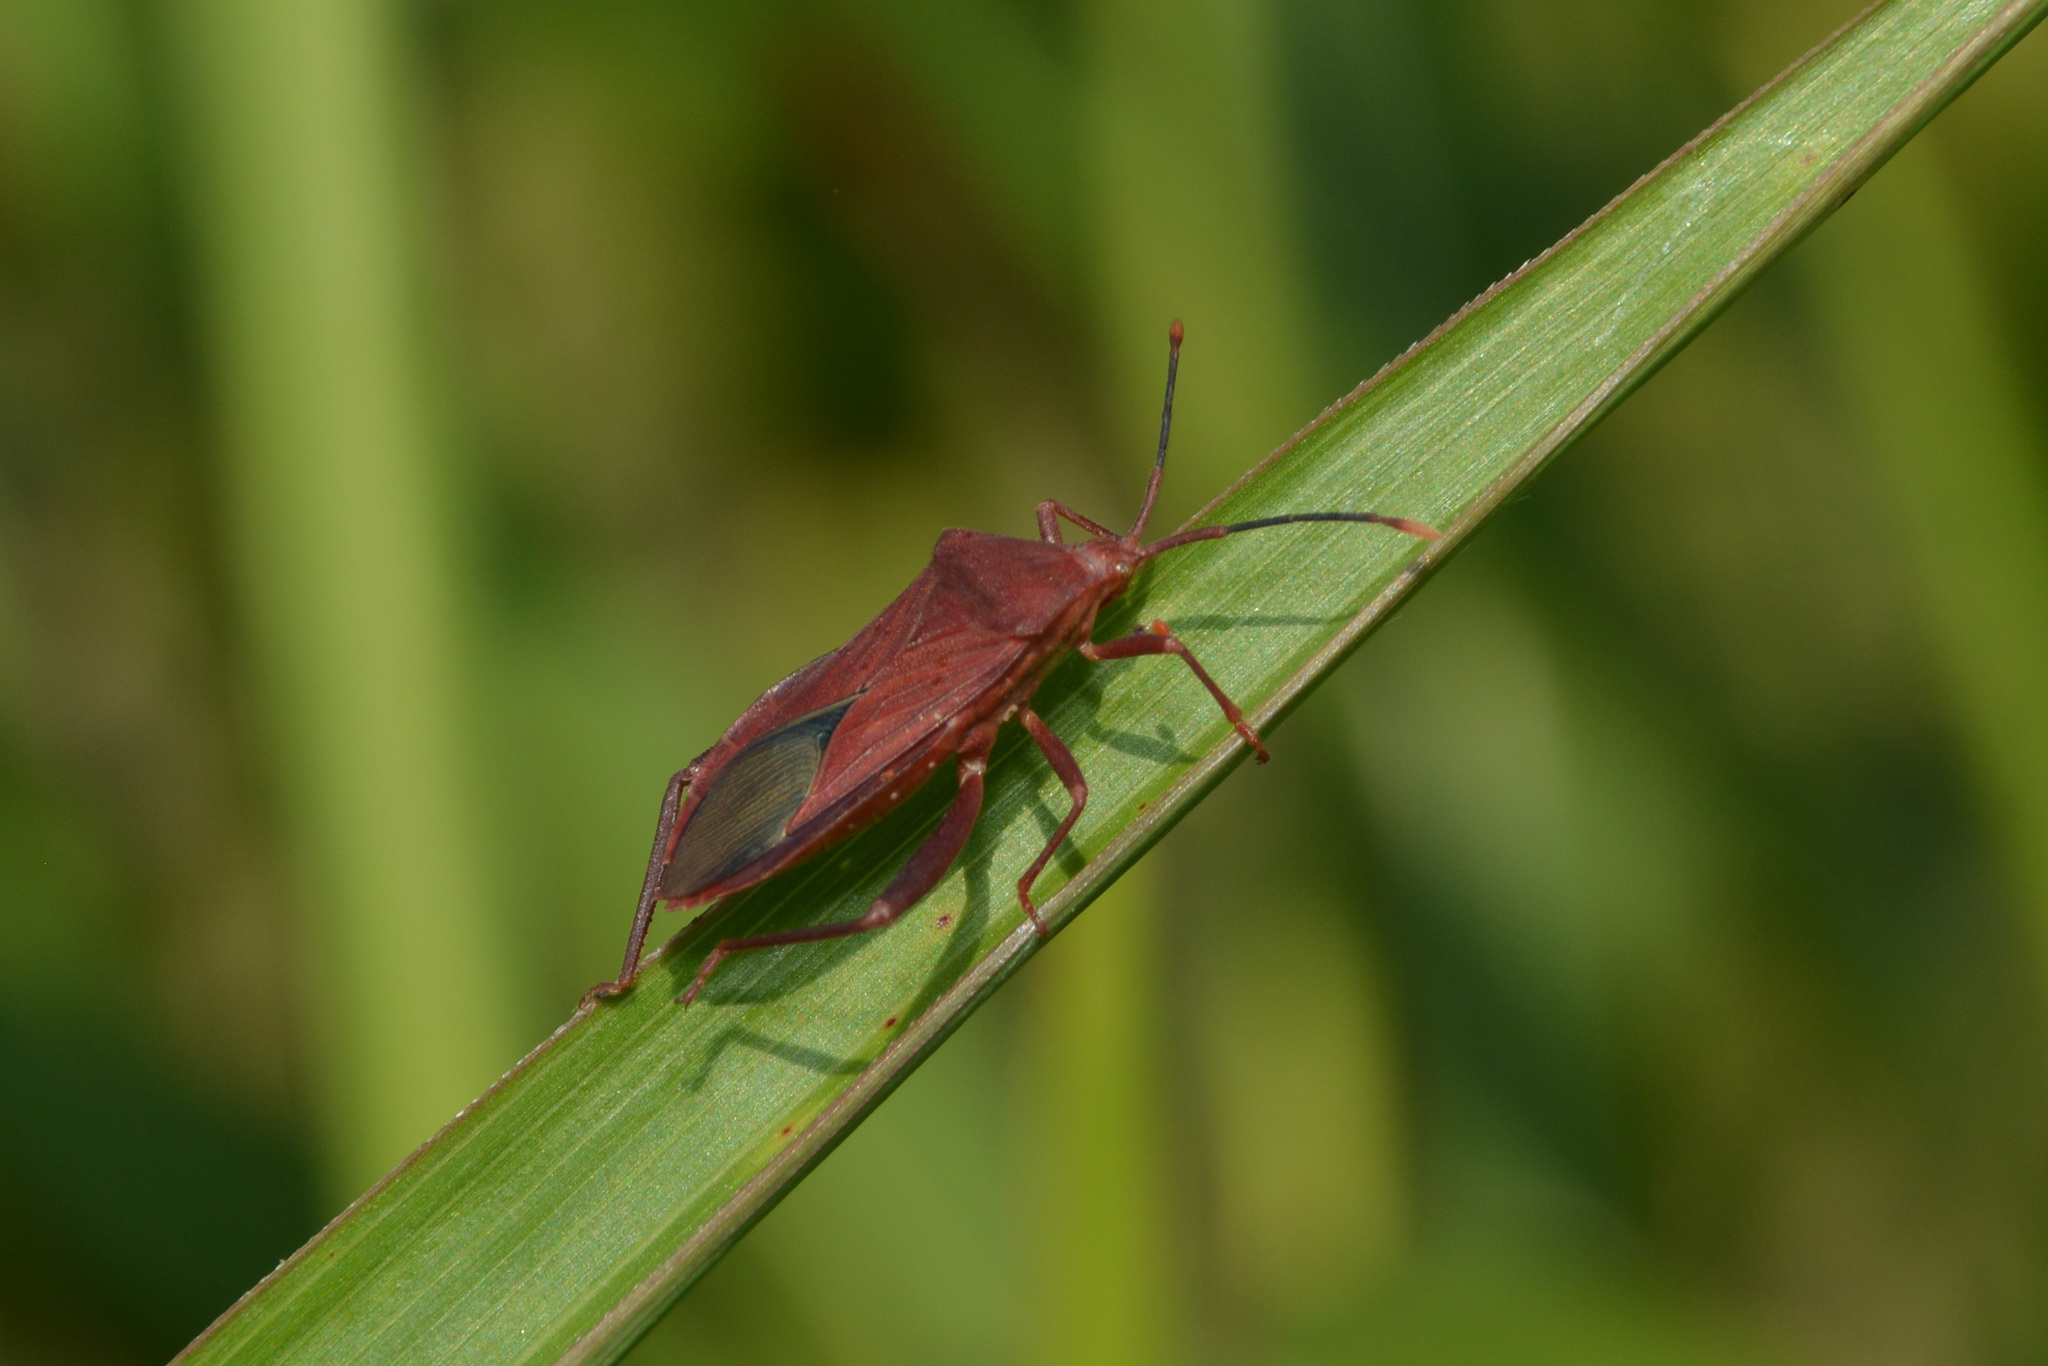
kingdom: Animalia
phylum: Arthropoda
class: Insecta
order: Hemiptera
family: Coreidae
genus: Athaumastus
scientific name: Athaumastus haematicus
